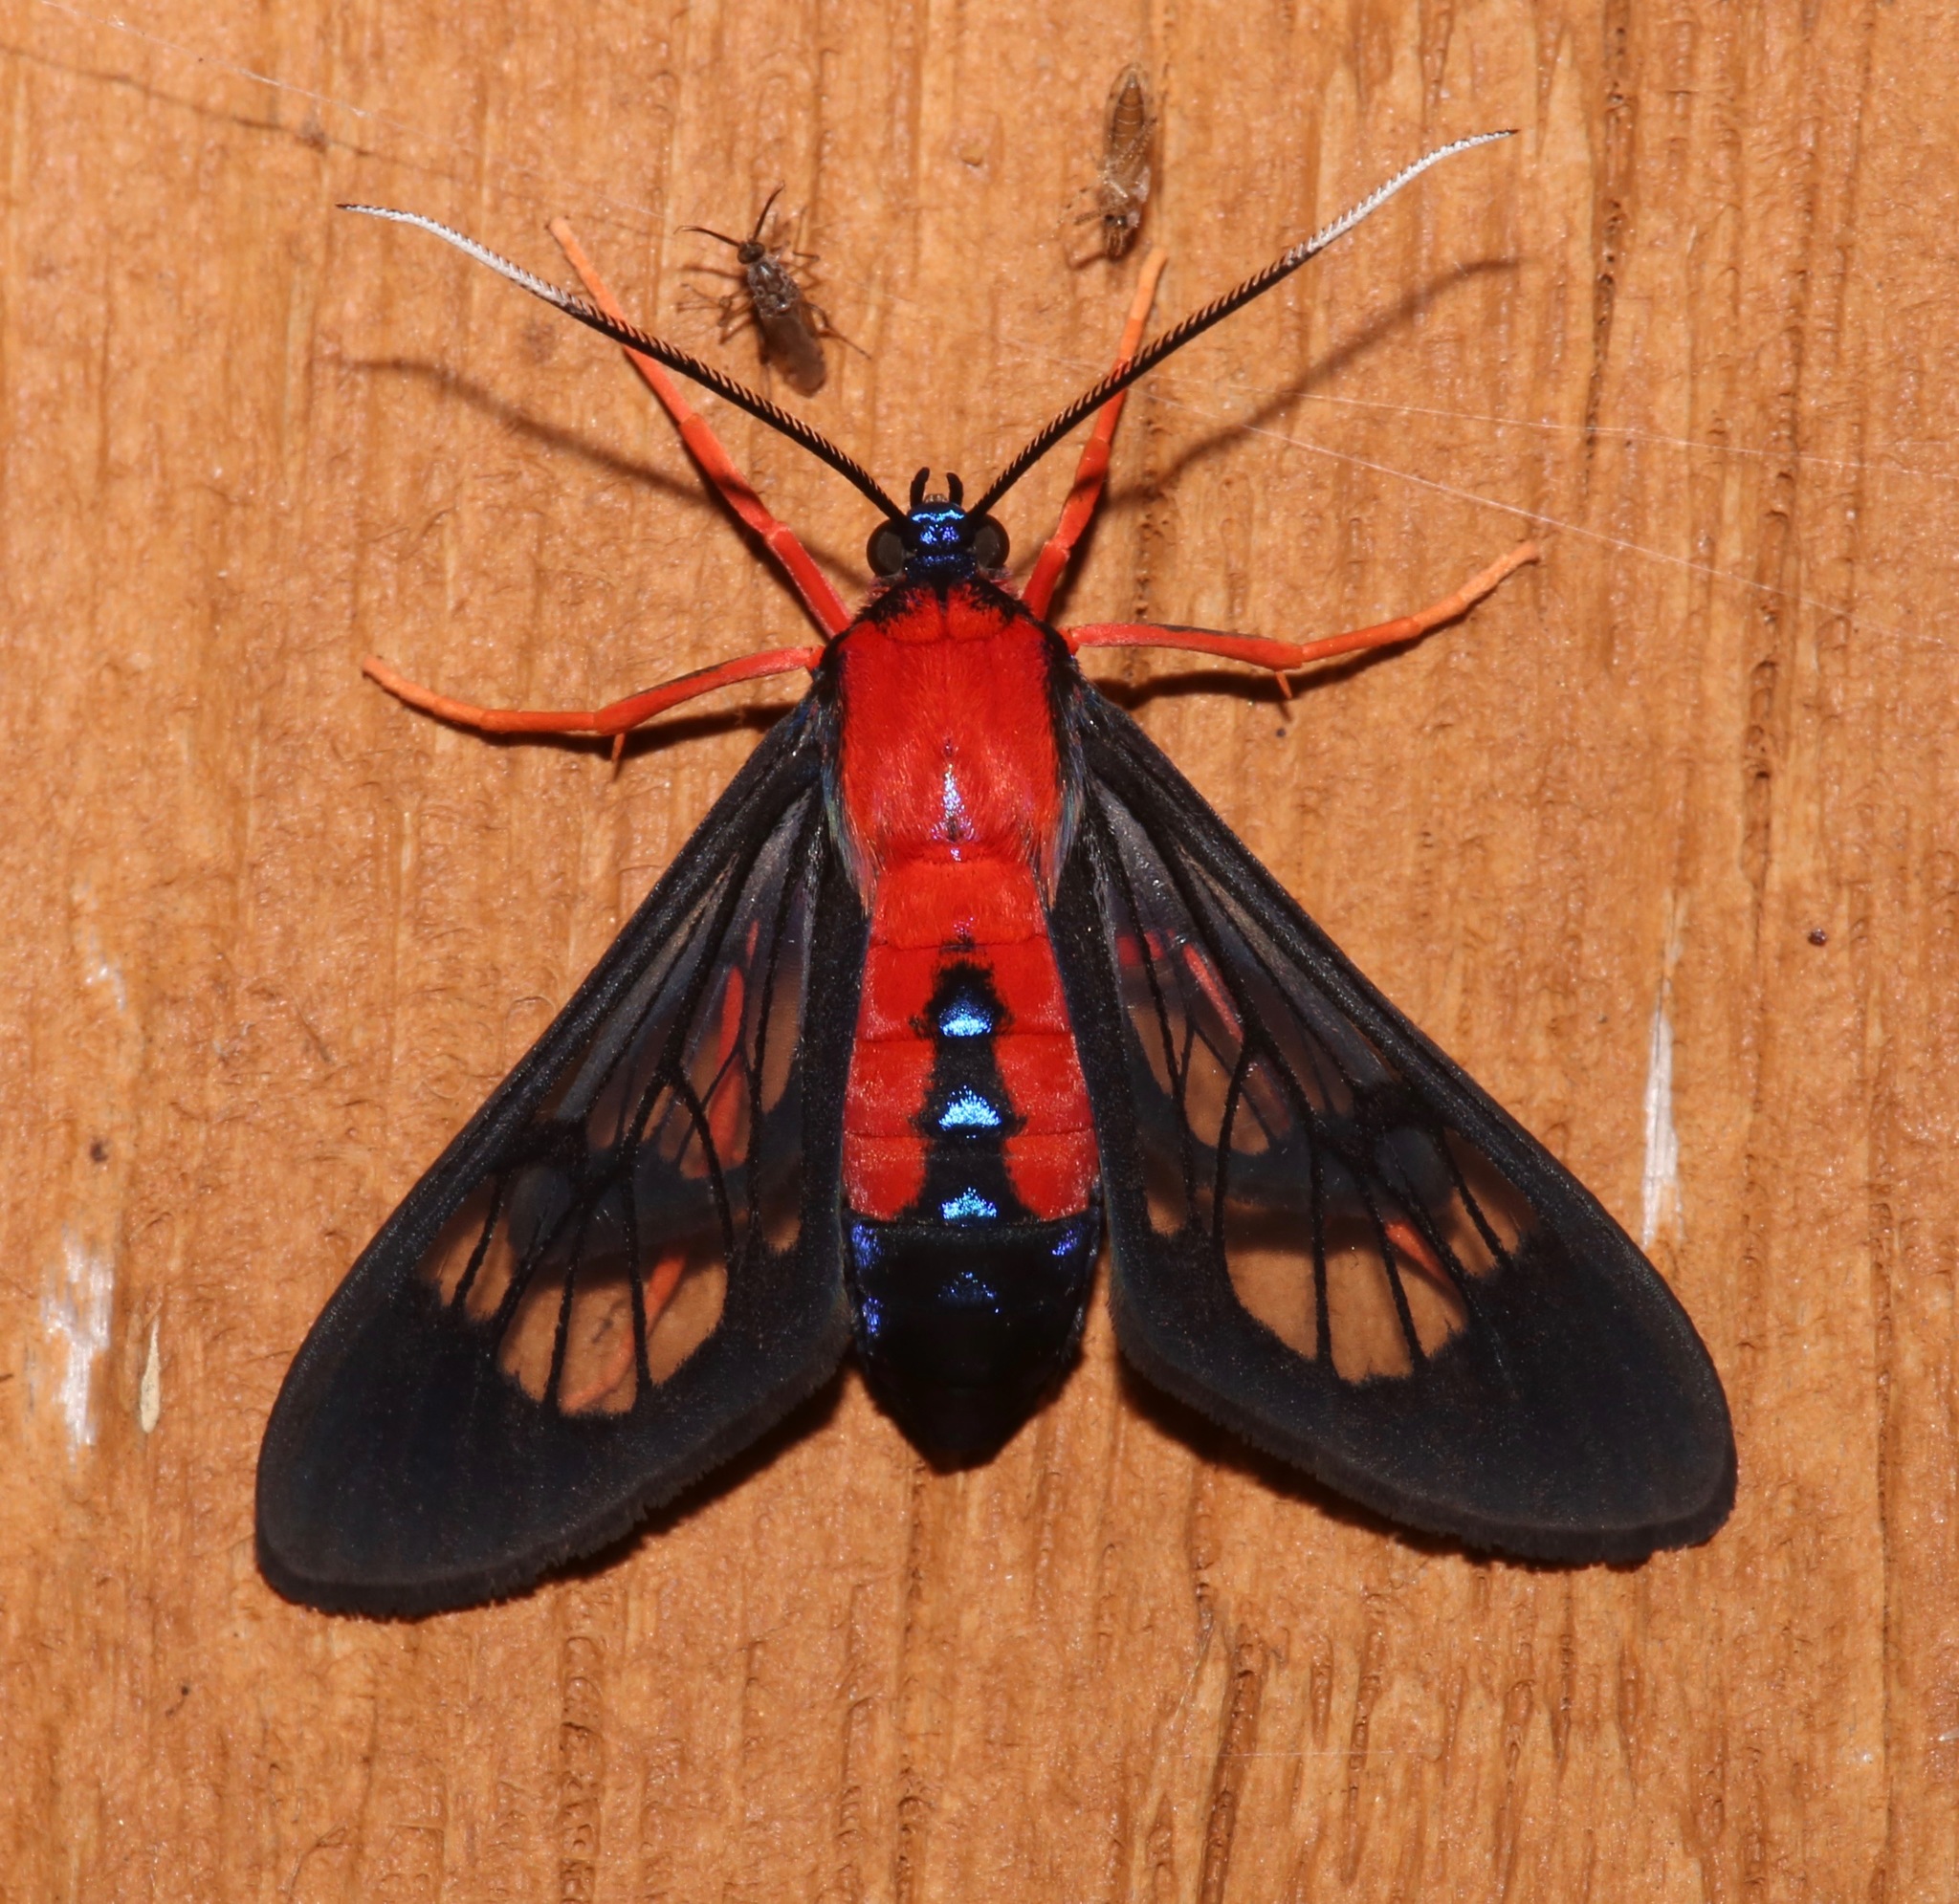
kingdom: Animalia
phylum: Arthropoda
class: Insecta
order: Lepidoptera
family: Erebidae
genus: Cosmosoma
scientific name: Cosmosoma myrodora
